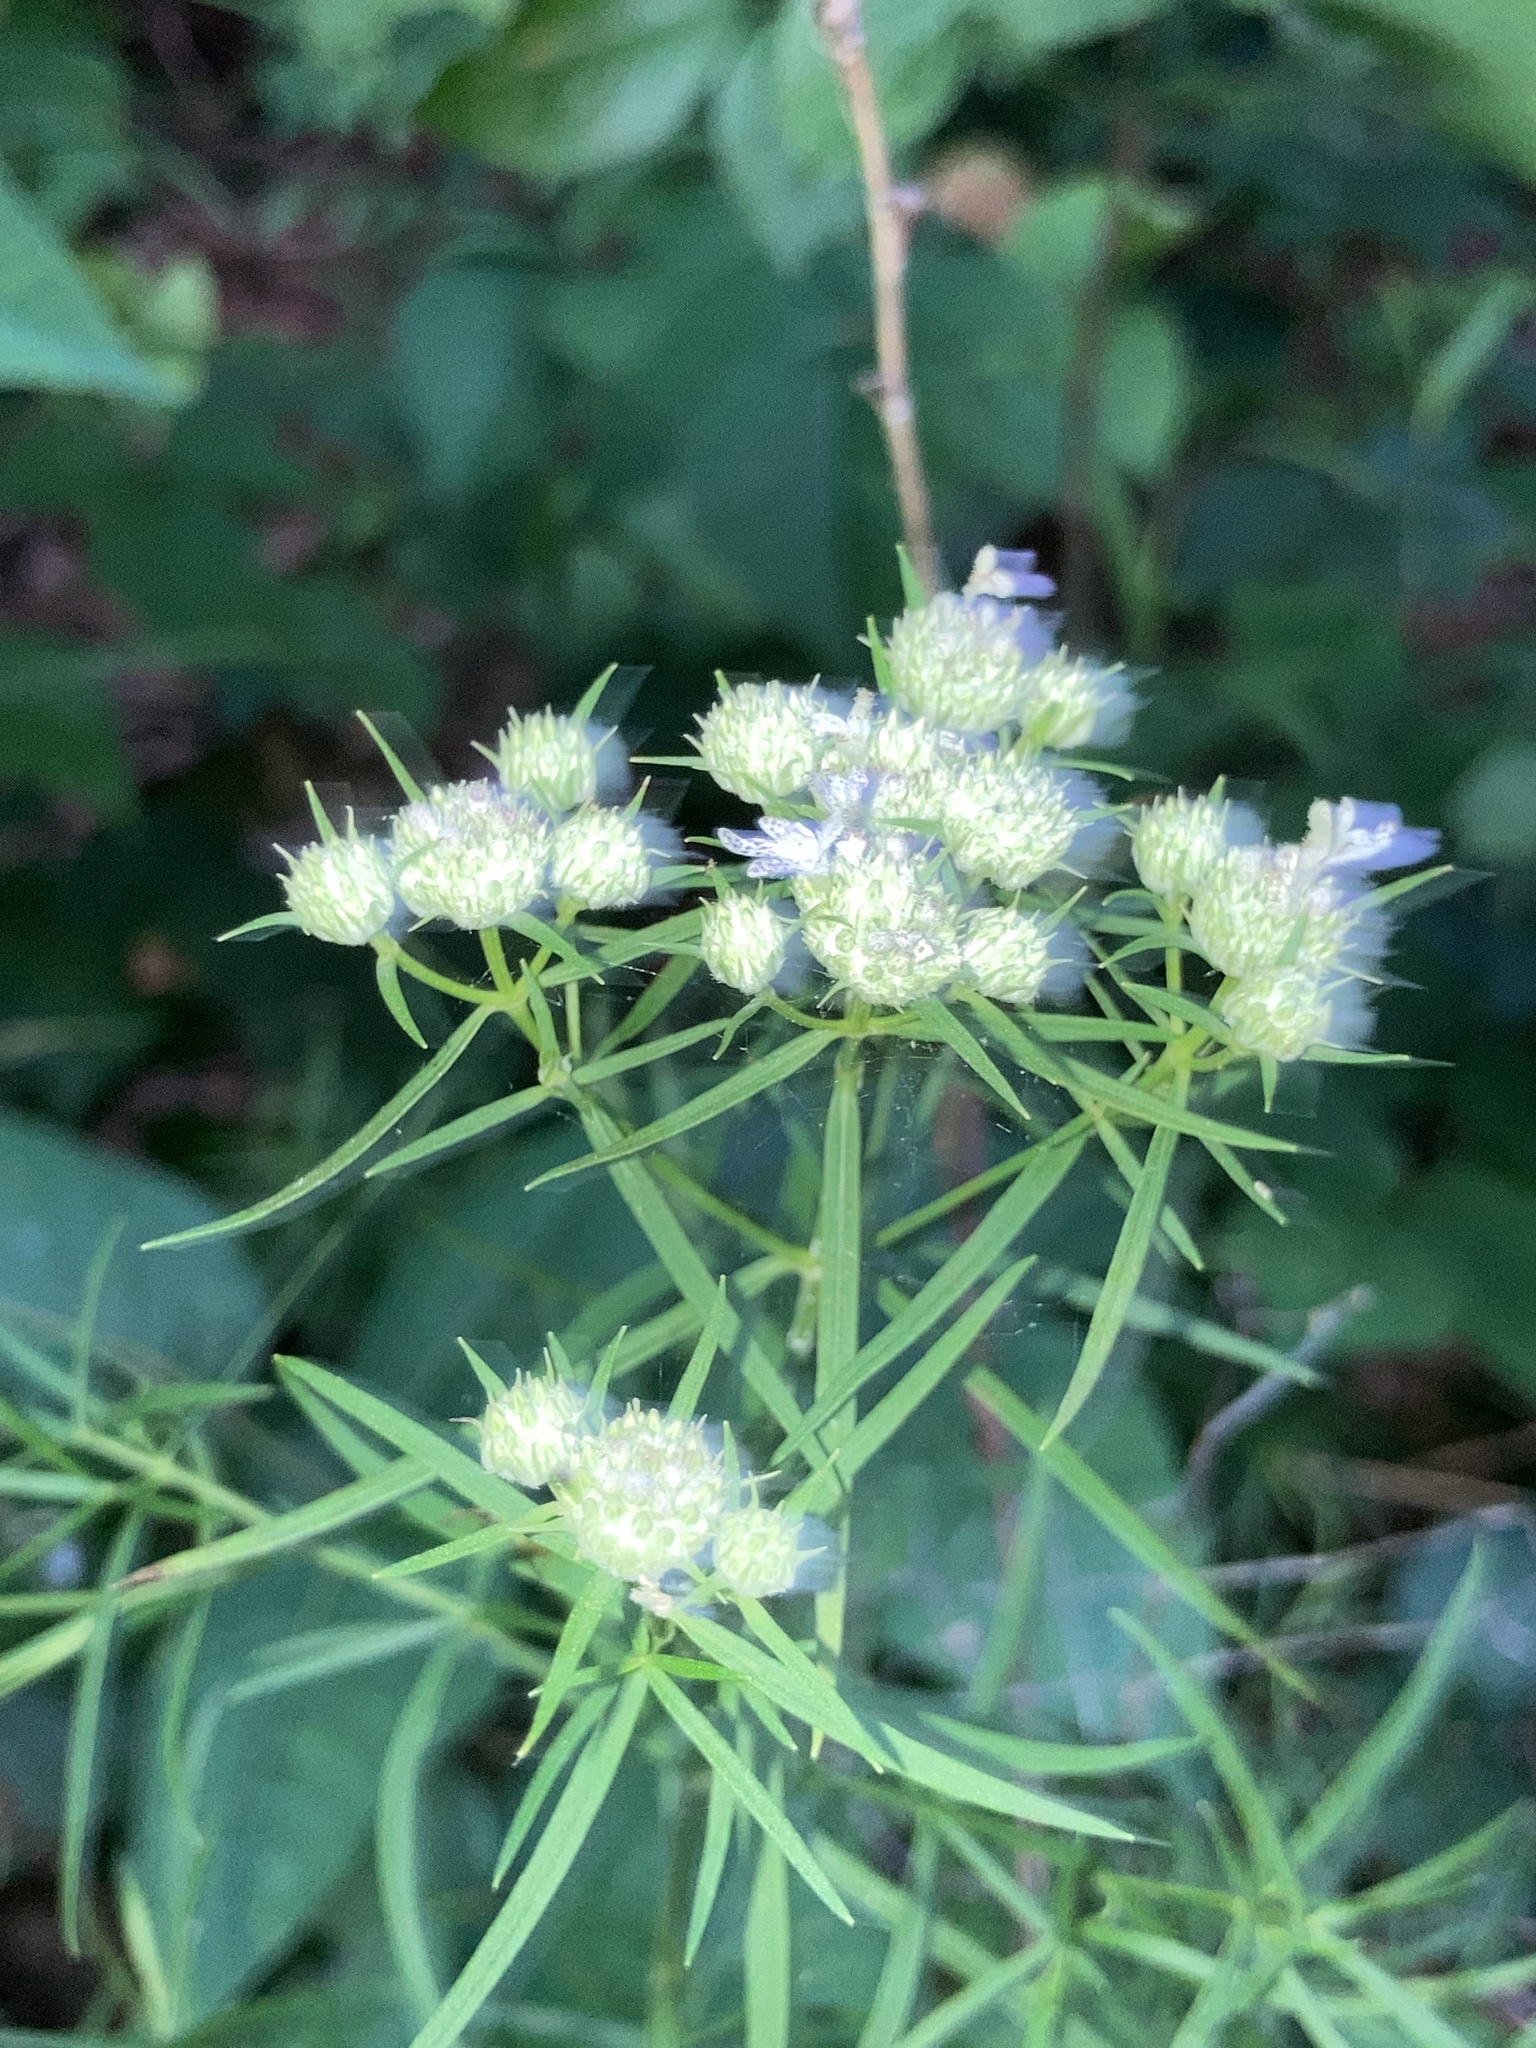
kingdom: Plantae
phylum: Tracheophyta
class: Magnoliopsida
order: Lamiales
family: Lamiaceae
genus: Pycnanthemum
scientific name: Pycnanthemum tenuifolium
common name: Narrow-leaf mountain-mint
